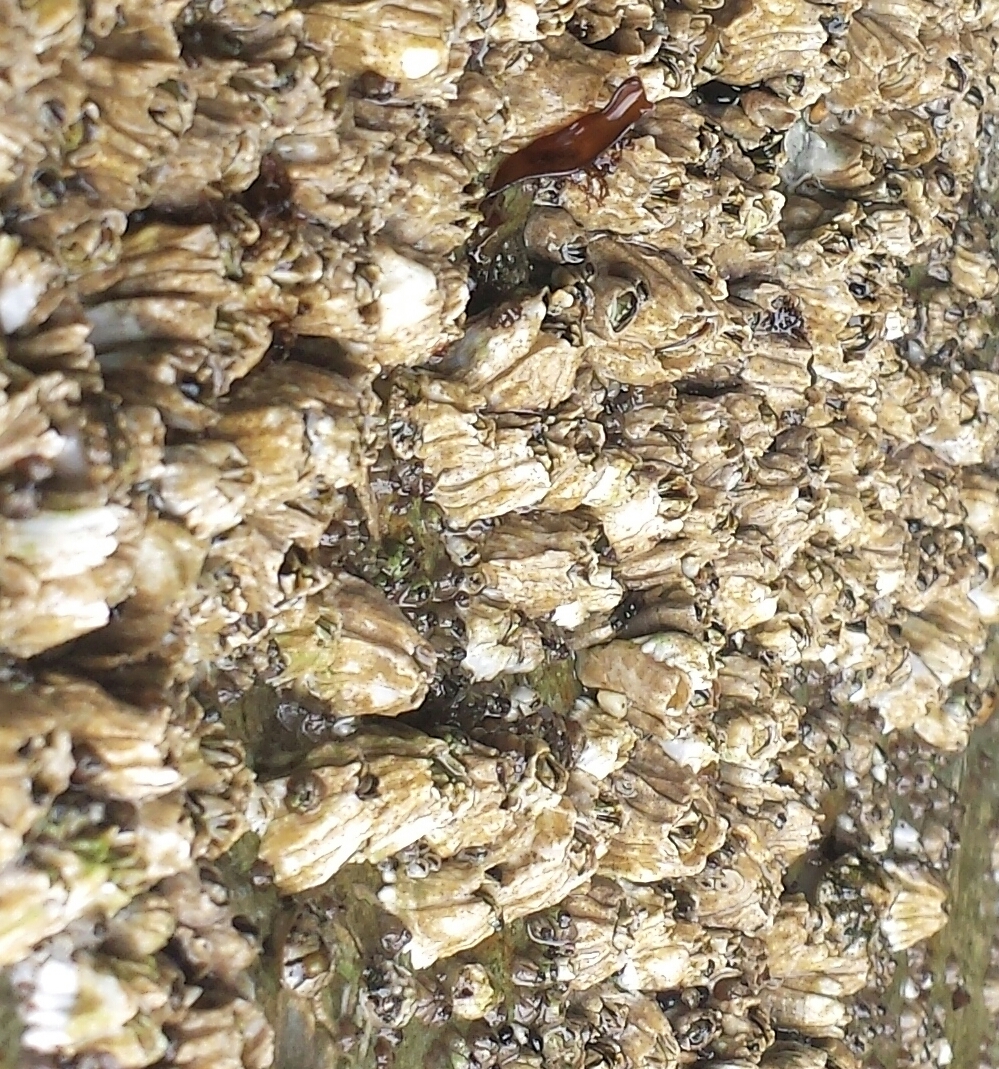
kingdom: Animalia
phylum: Arthropoda
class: Maxillopoda
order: Sessilia
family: Balanidae
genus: Balanus
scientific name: Balanus glandula
